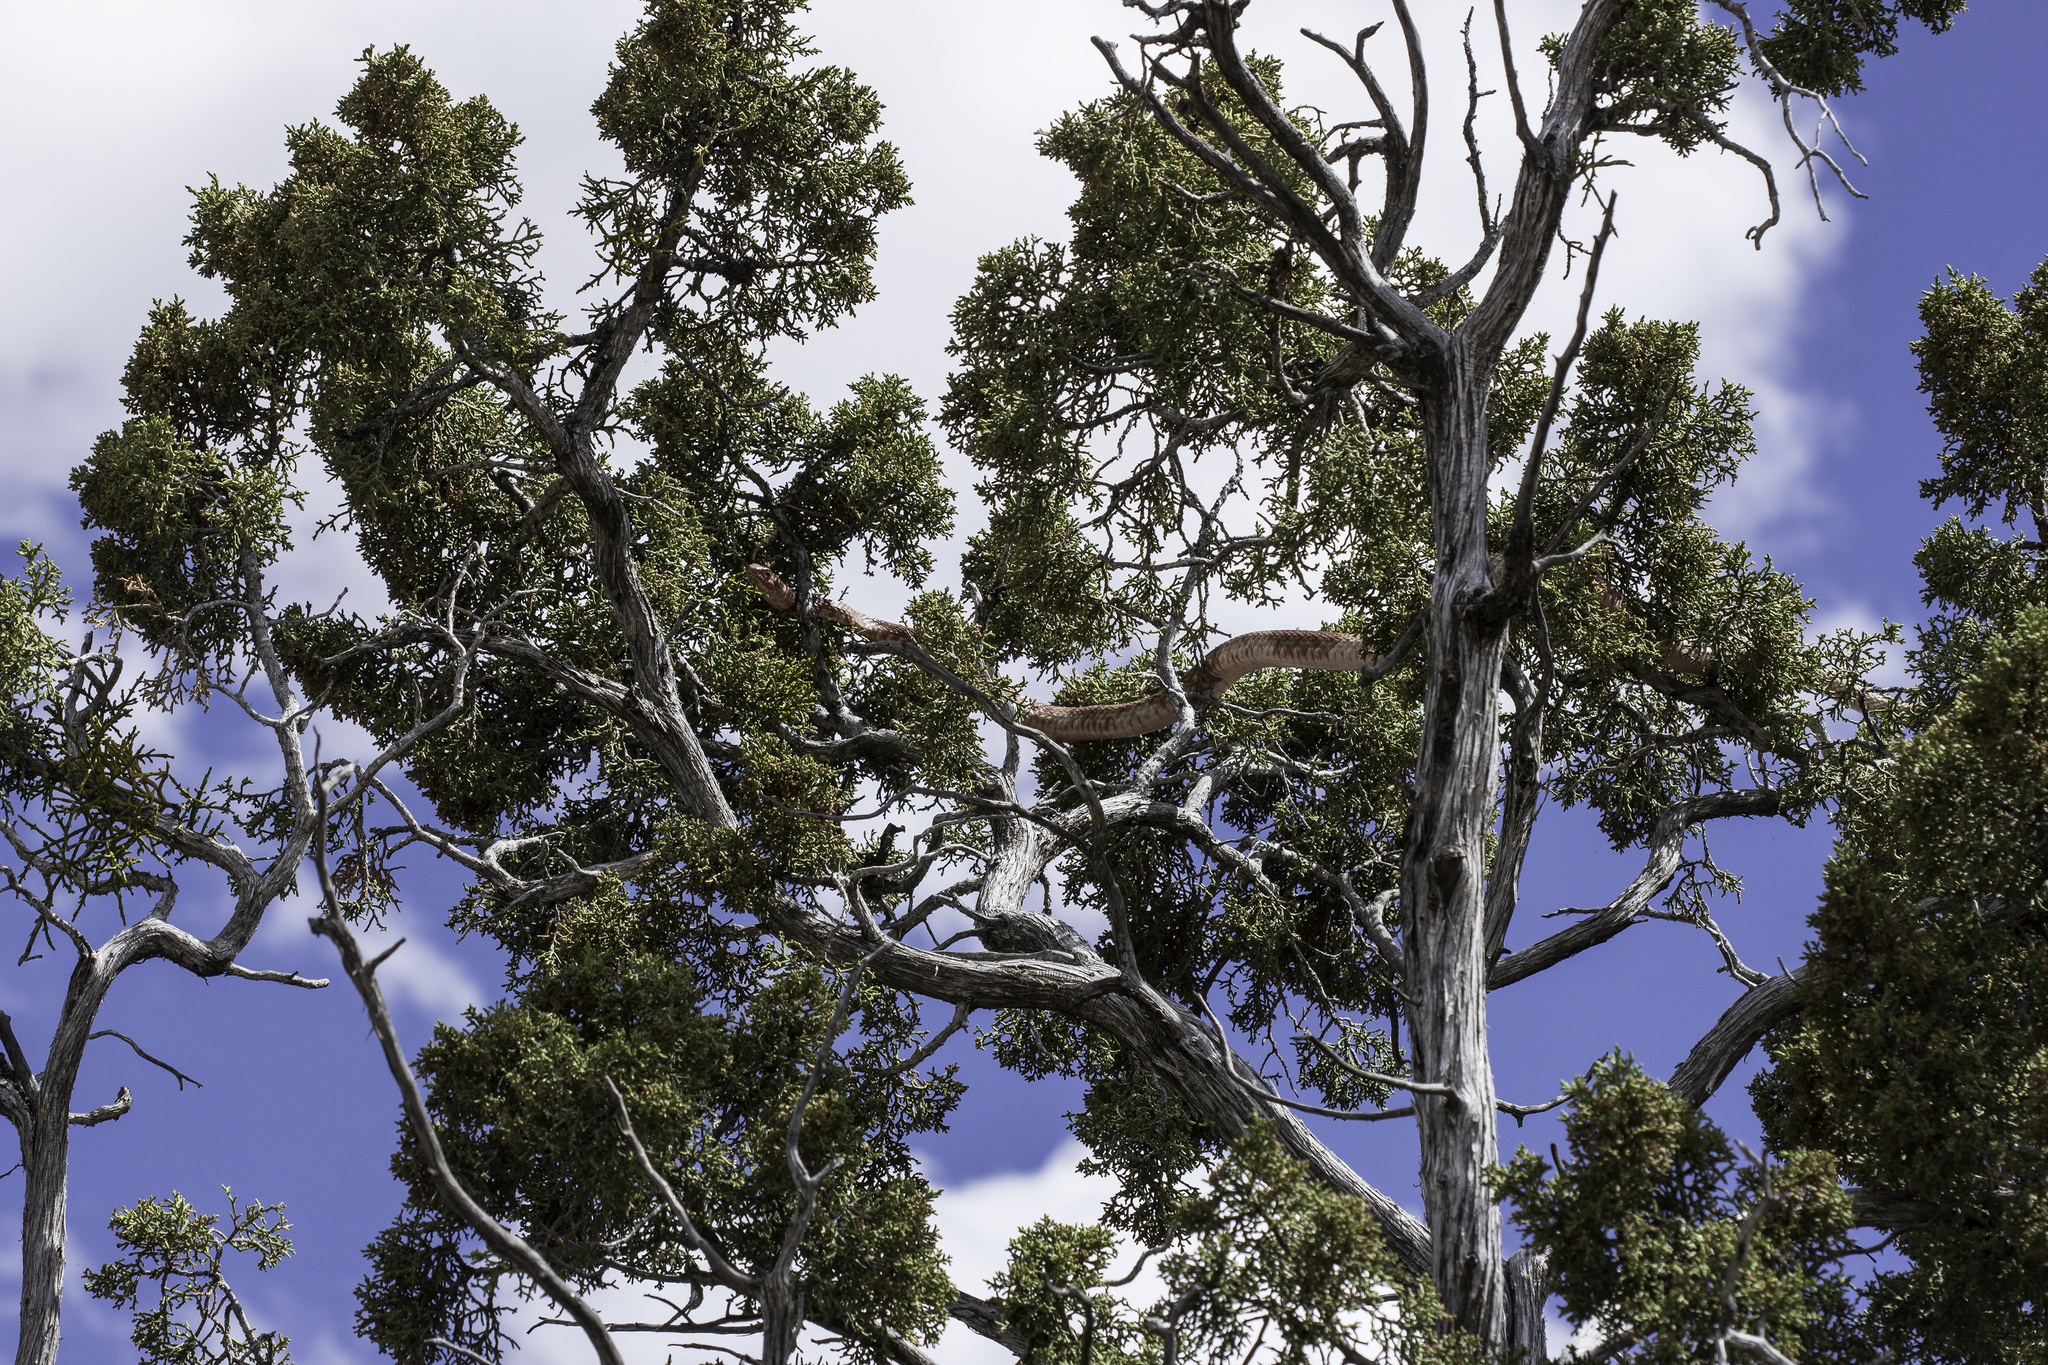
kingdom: Animalia
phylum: Chordata
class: Squamata
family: Colubridae
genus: Masticophis
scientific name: Masticophis flagellum
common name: Coachwhip
